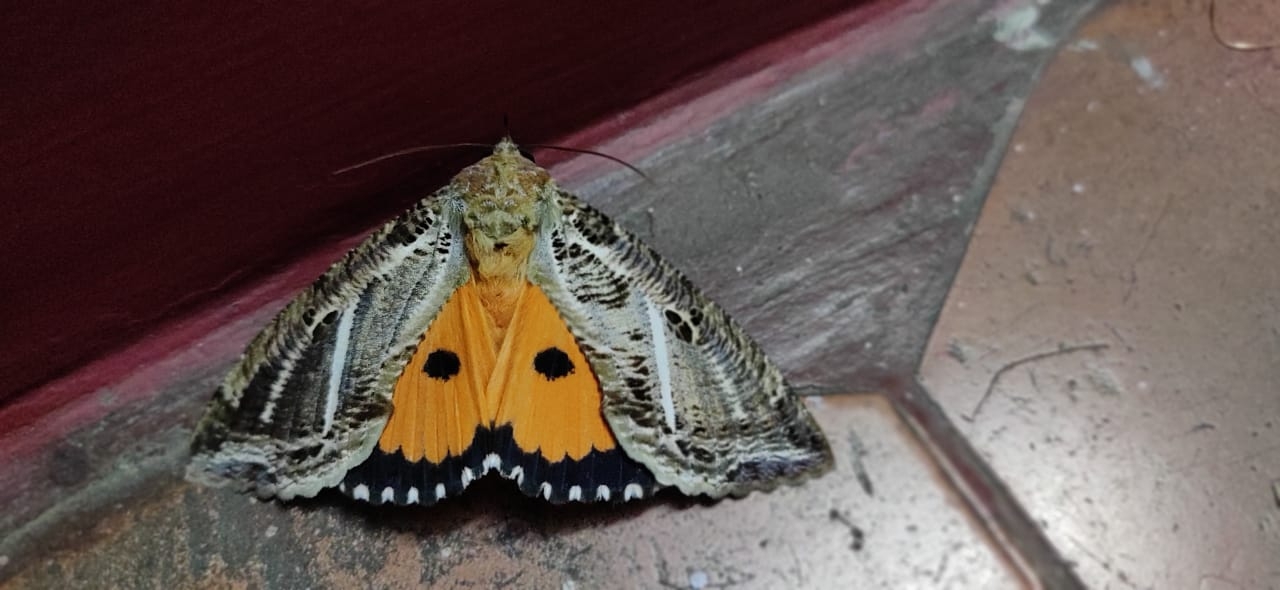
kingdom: Animalia
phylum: Arthropoda
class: Insecta
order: Lepidoptera
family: Erebidae
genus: Eudocima
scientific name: Eudocima materna
